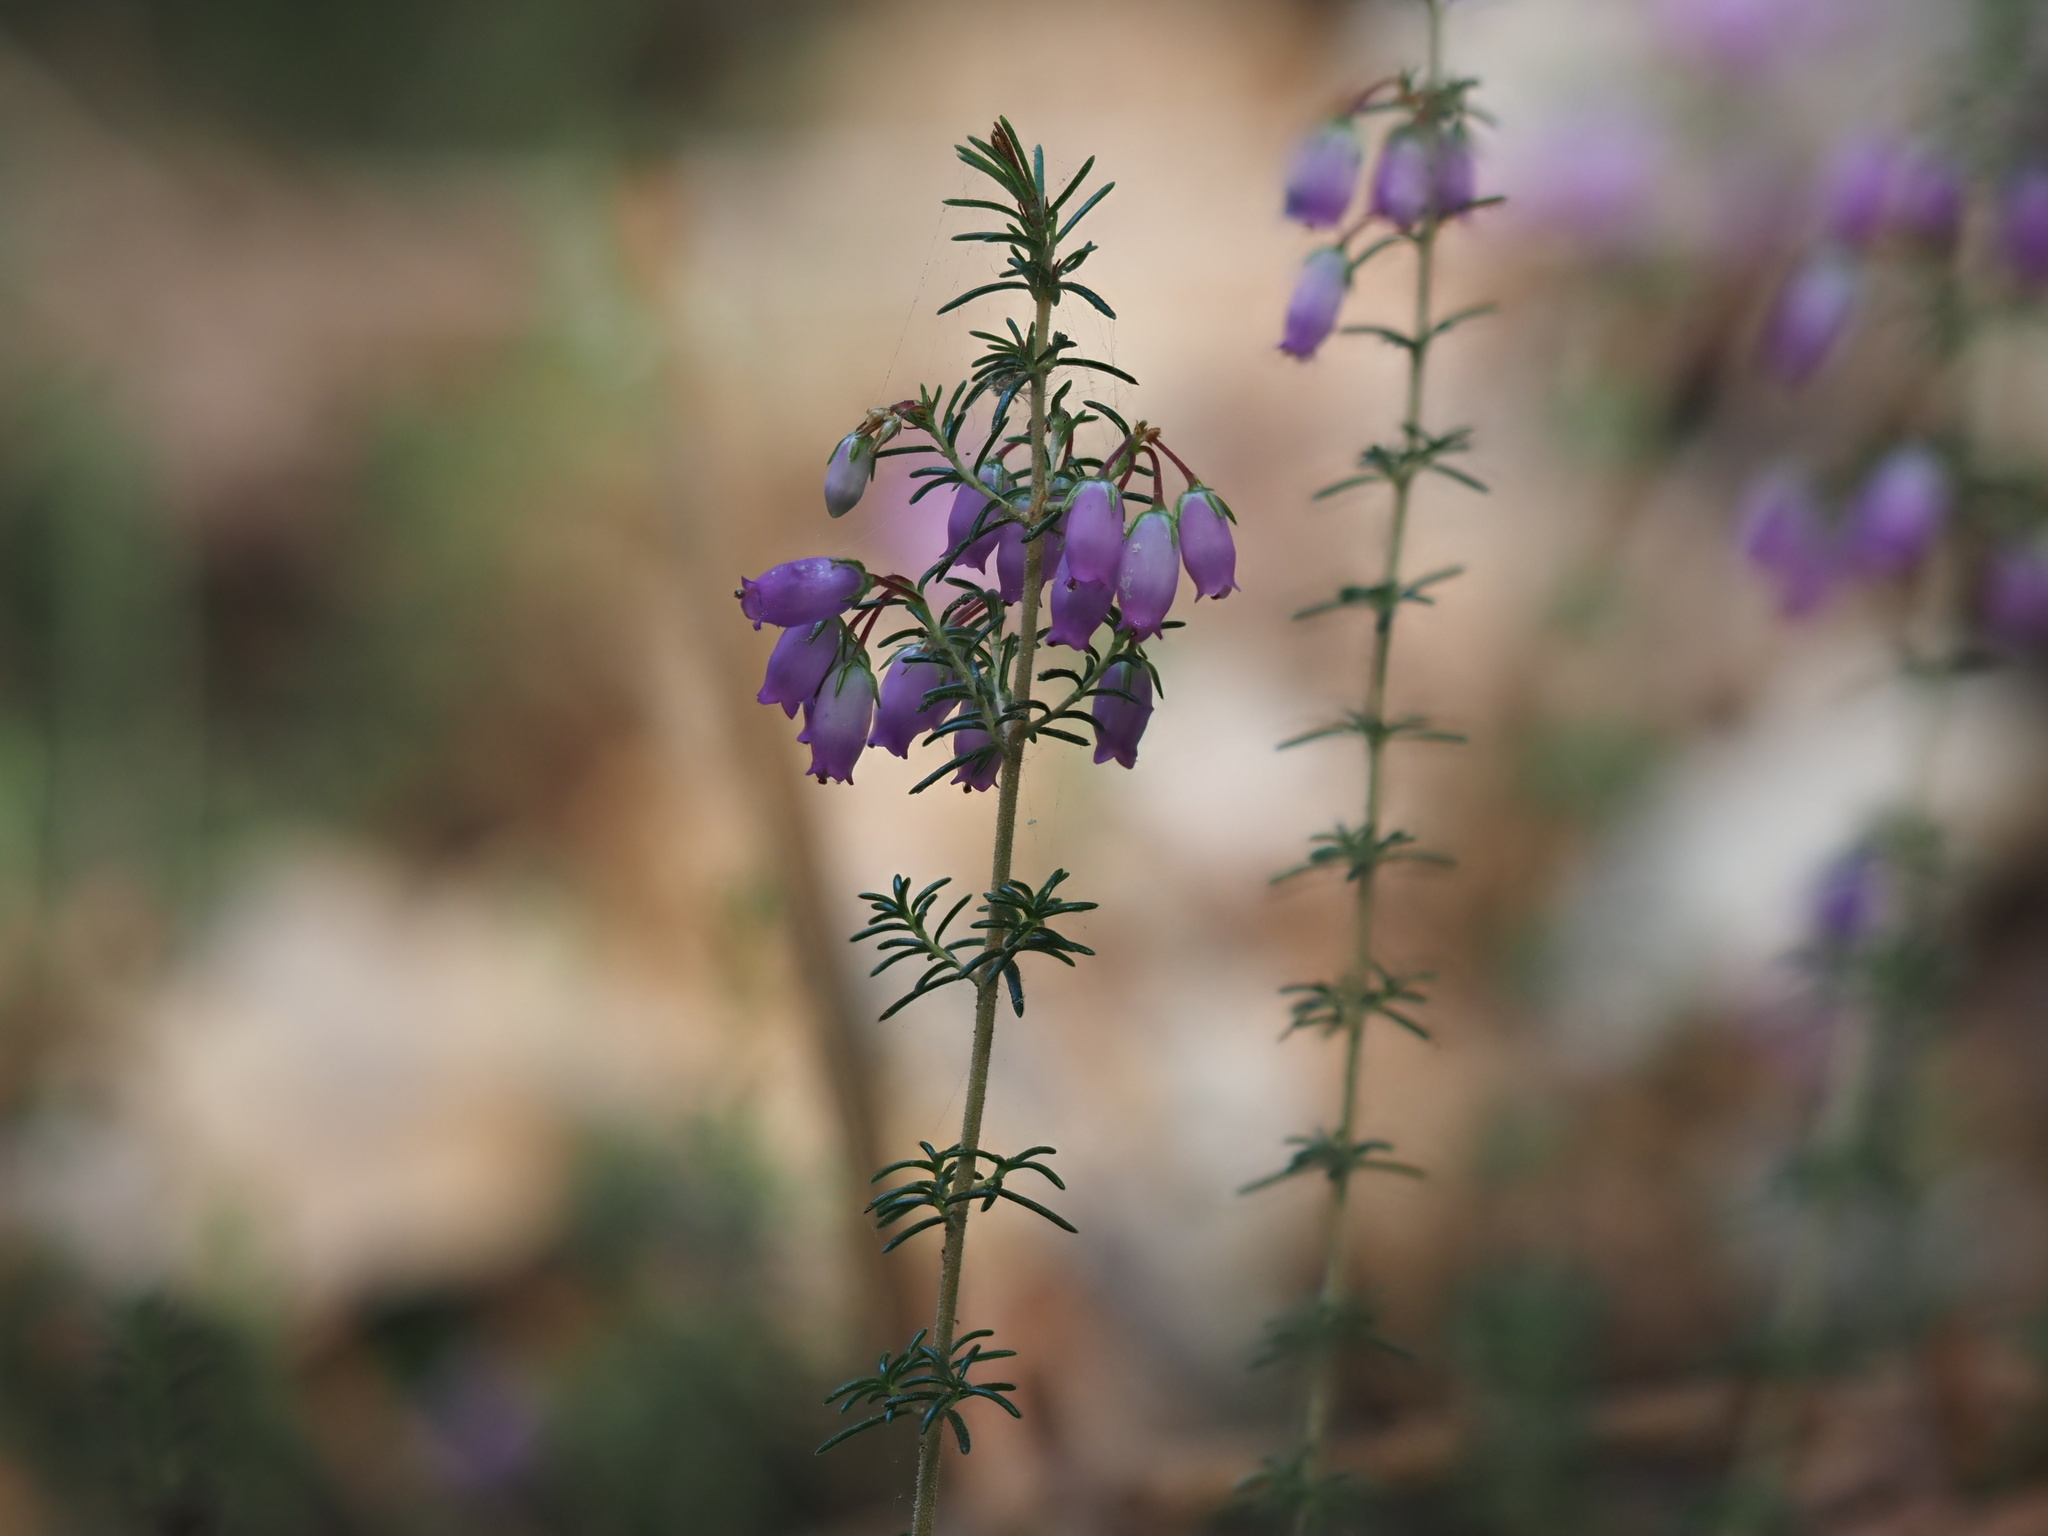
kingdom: Plantae
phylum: Tracheophyta
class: Magnoliopsida
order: Ericales
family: Ericaceae
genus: Erica
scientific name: Erica cinerea
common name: Bell heather
